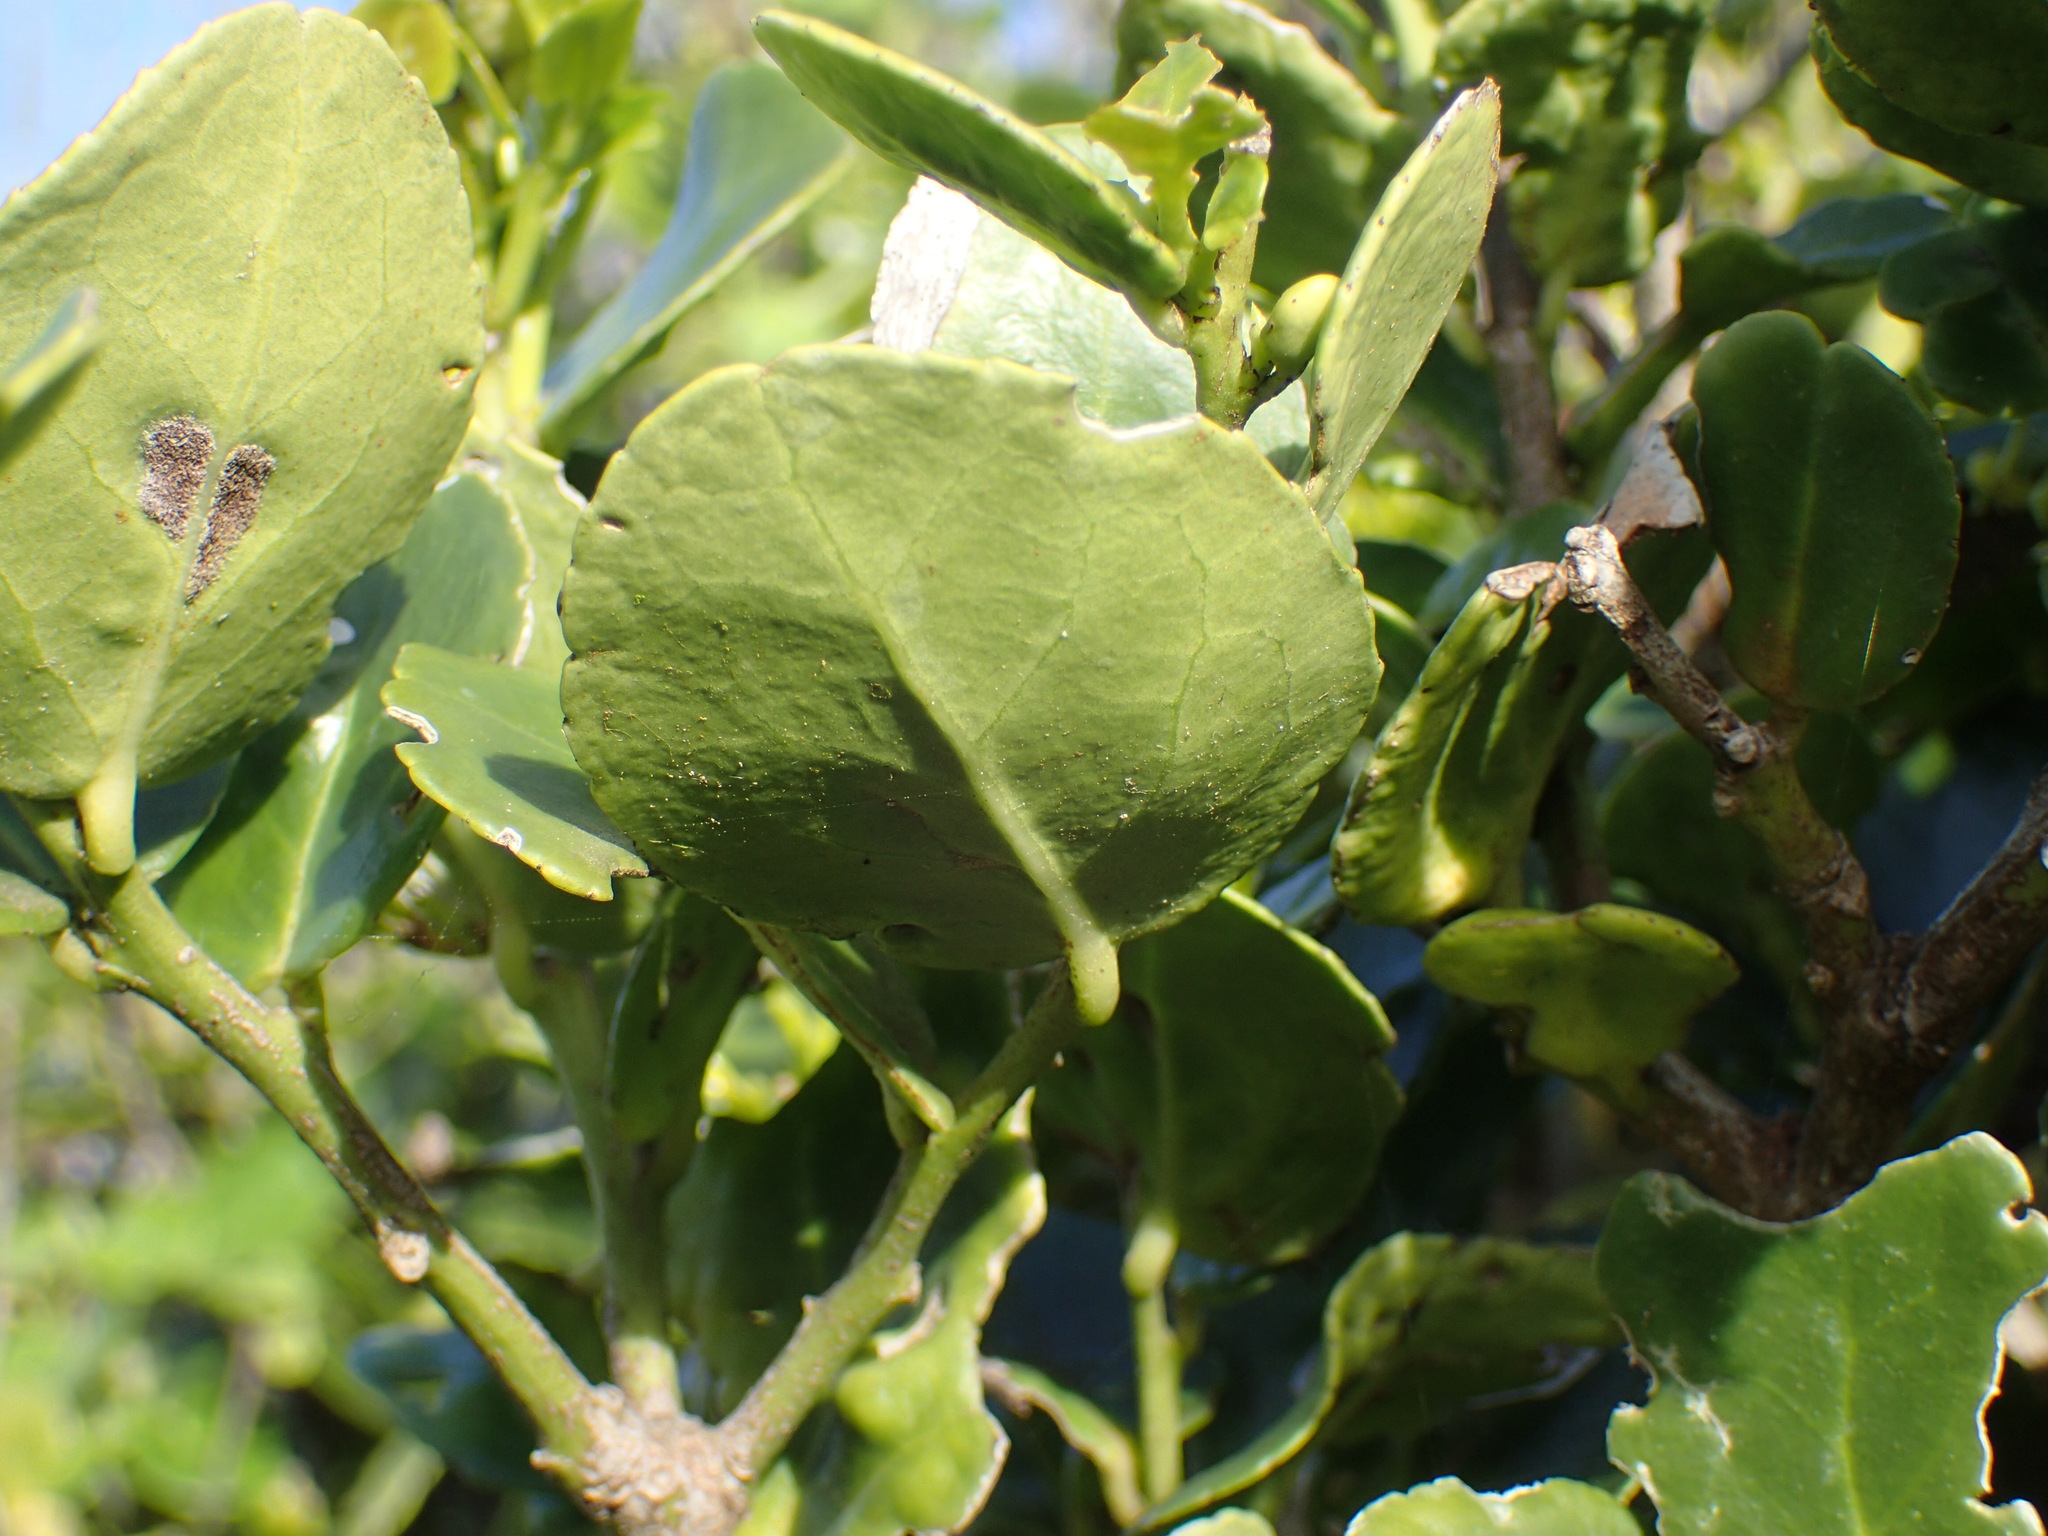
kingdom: Plantae
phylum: Tracheophyta
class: Magnoliopsida
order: Celastrales
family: Celastraceae
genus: Mystroxylon
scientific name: Mystroxylon aethiopicum
